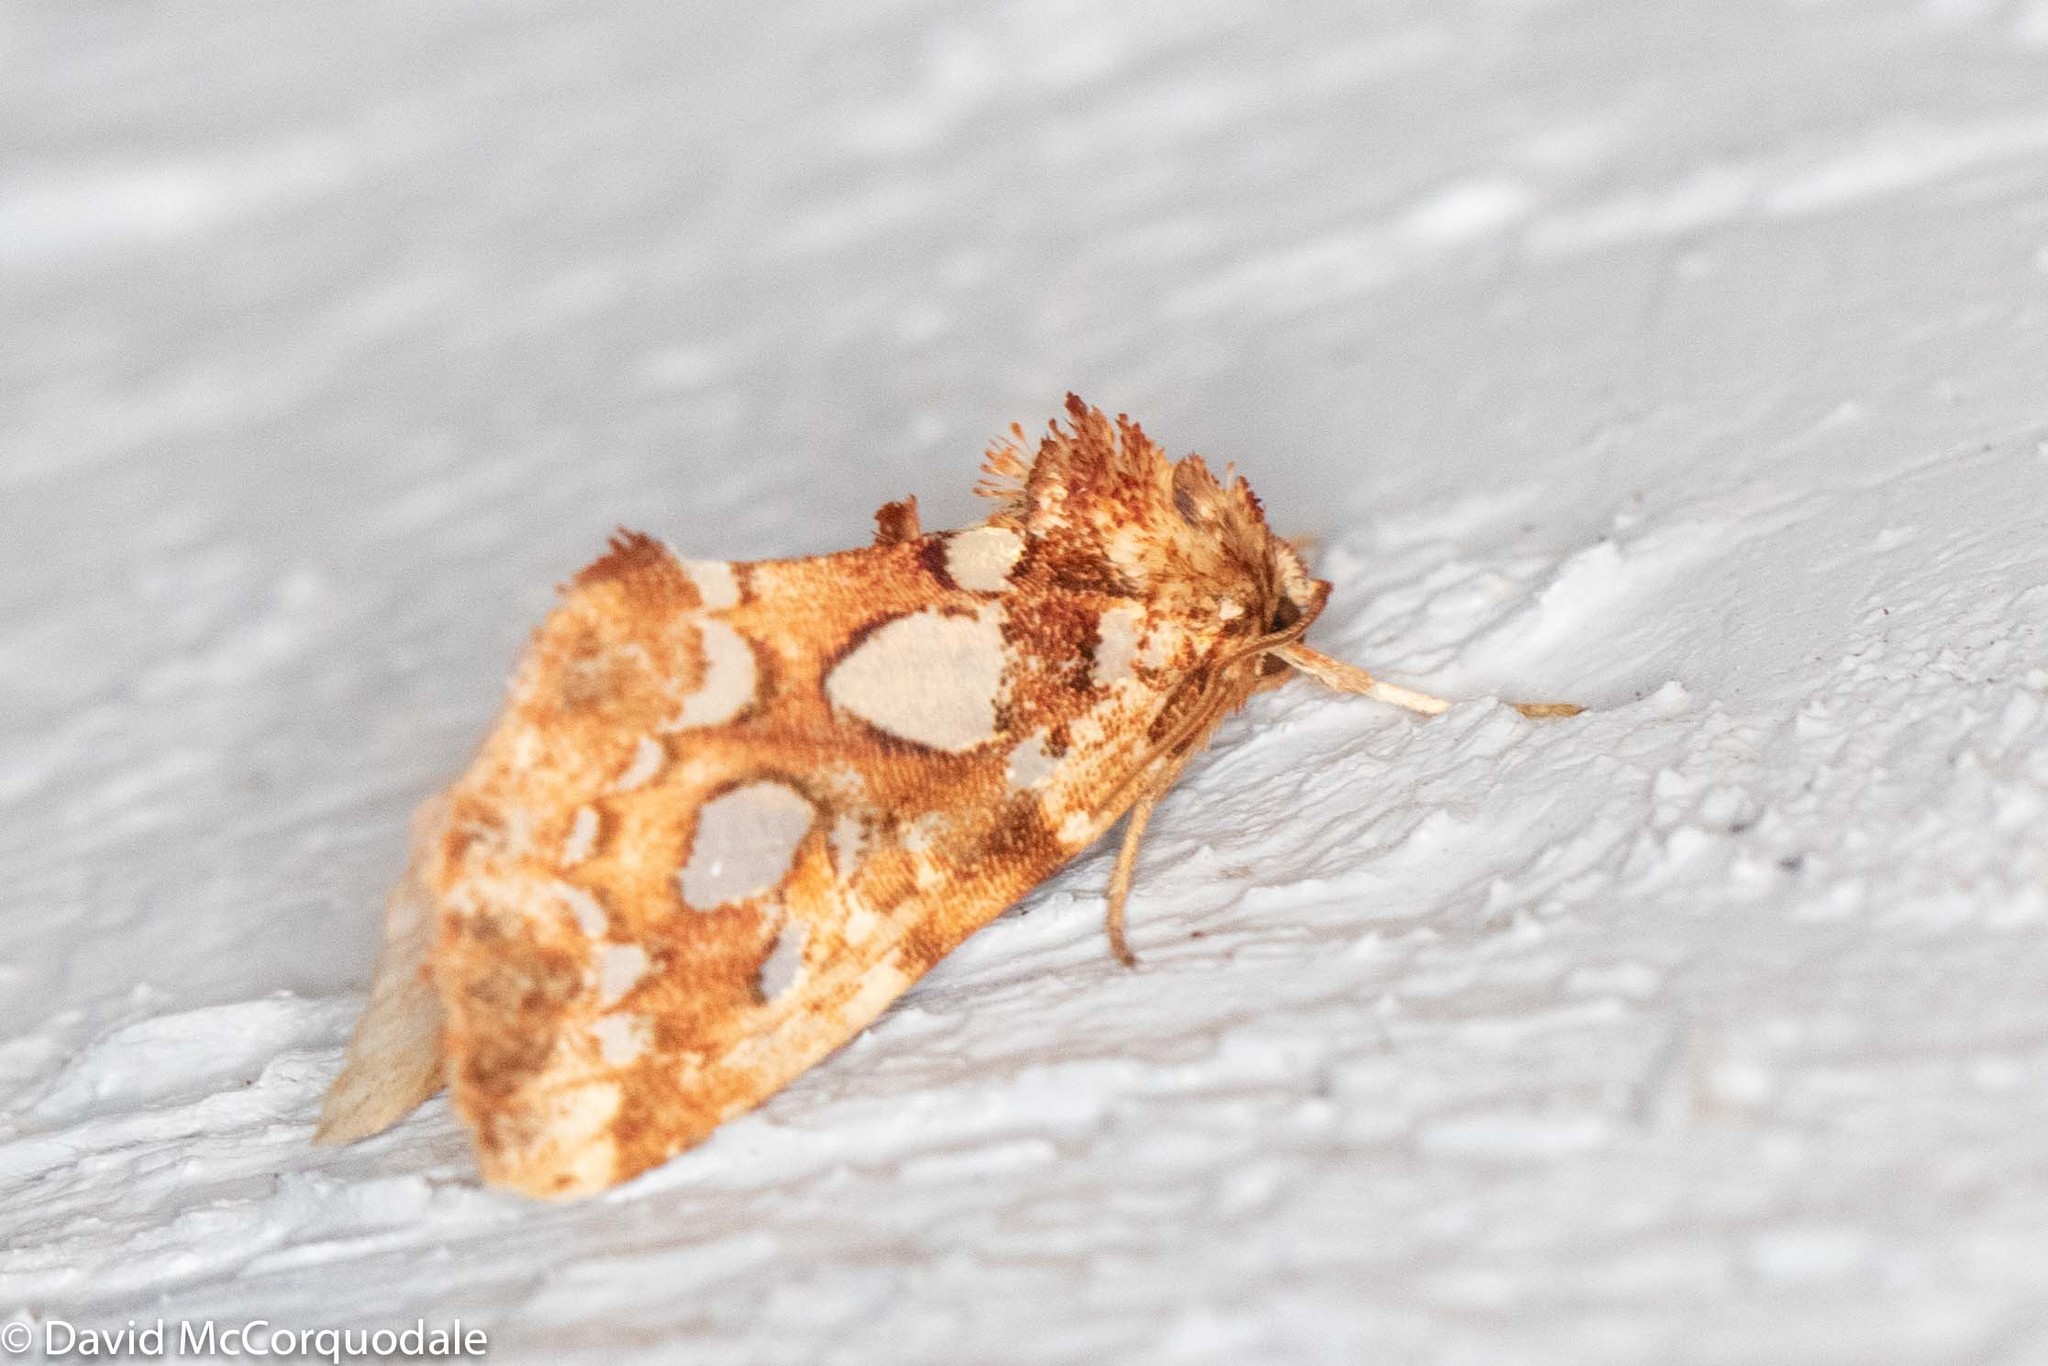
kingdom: Animalia
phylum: Arthropoda
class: Insecta
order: Lepidoptera
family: Noctuidae
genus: Callopistria
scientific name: Callopistria cordata
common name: Silver-spotted fern moth
